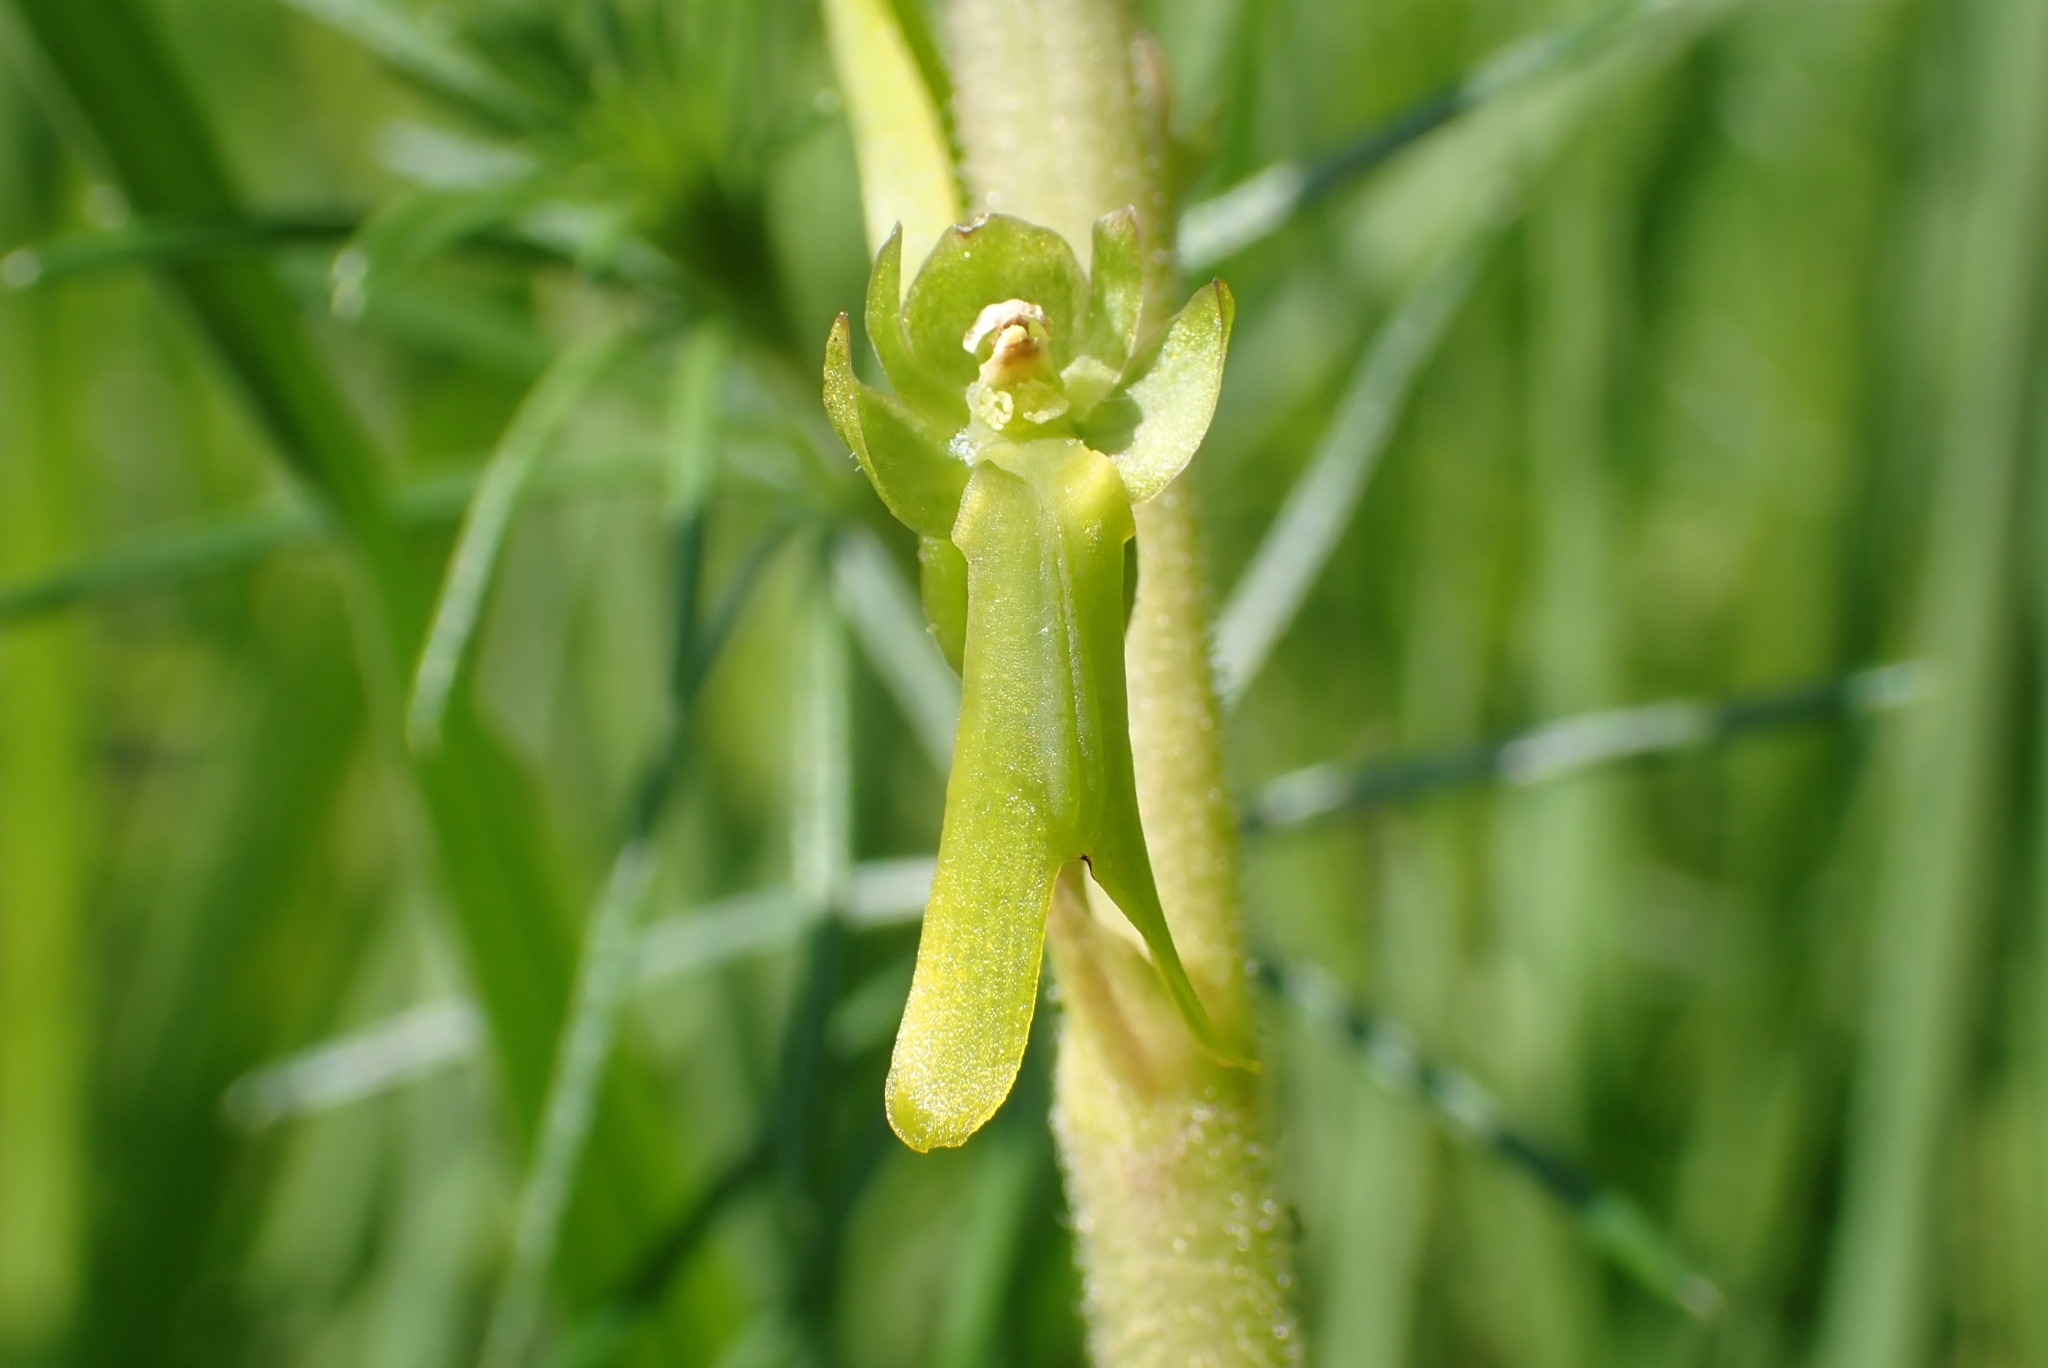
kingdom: Plantae
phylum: Tracheophyta
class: Liliopsida
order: Asparagales
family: Orchidaceae
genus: Neottia
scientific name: Neottia ovata
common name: Common twayblade
